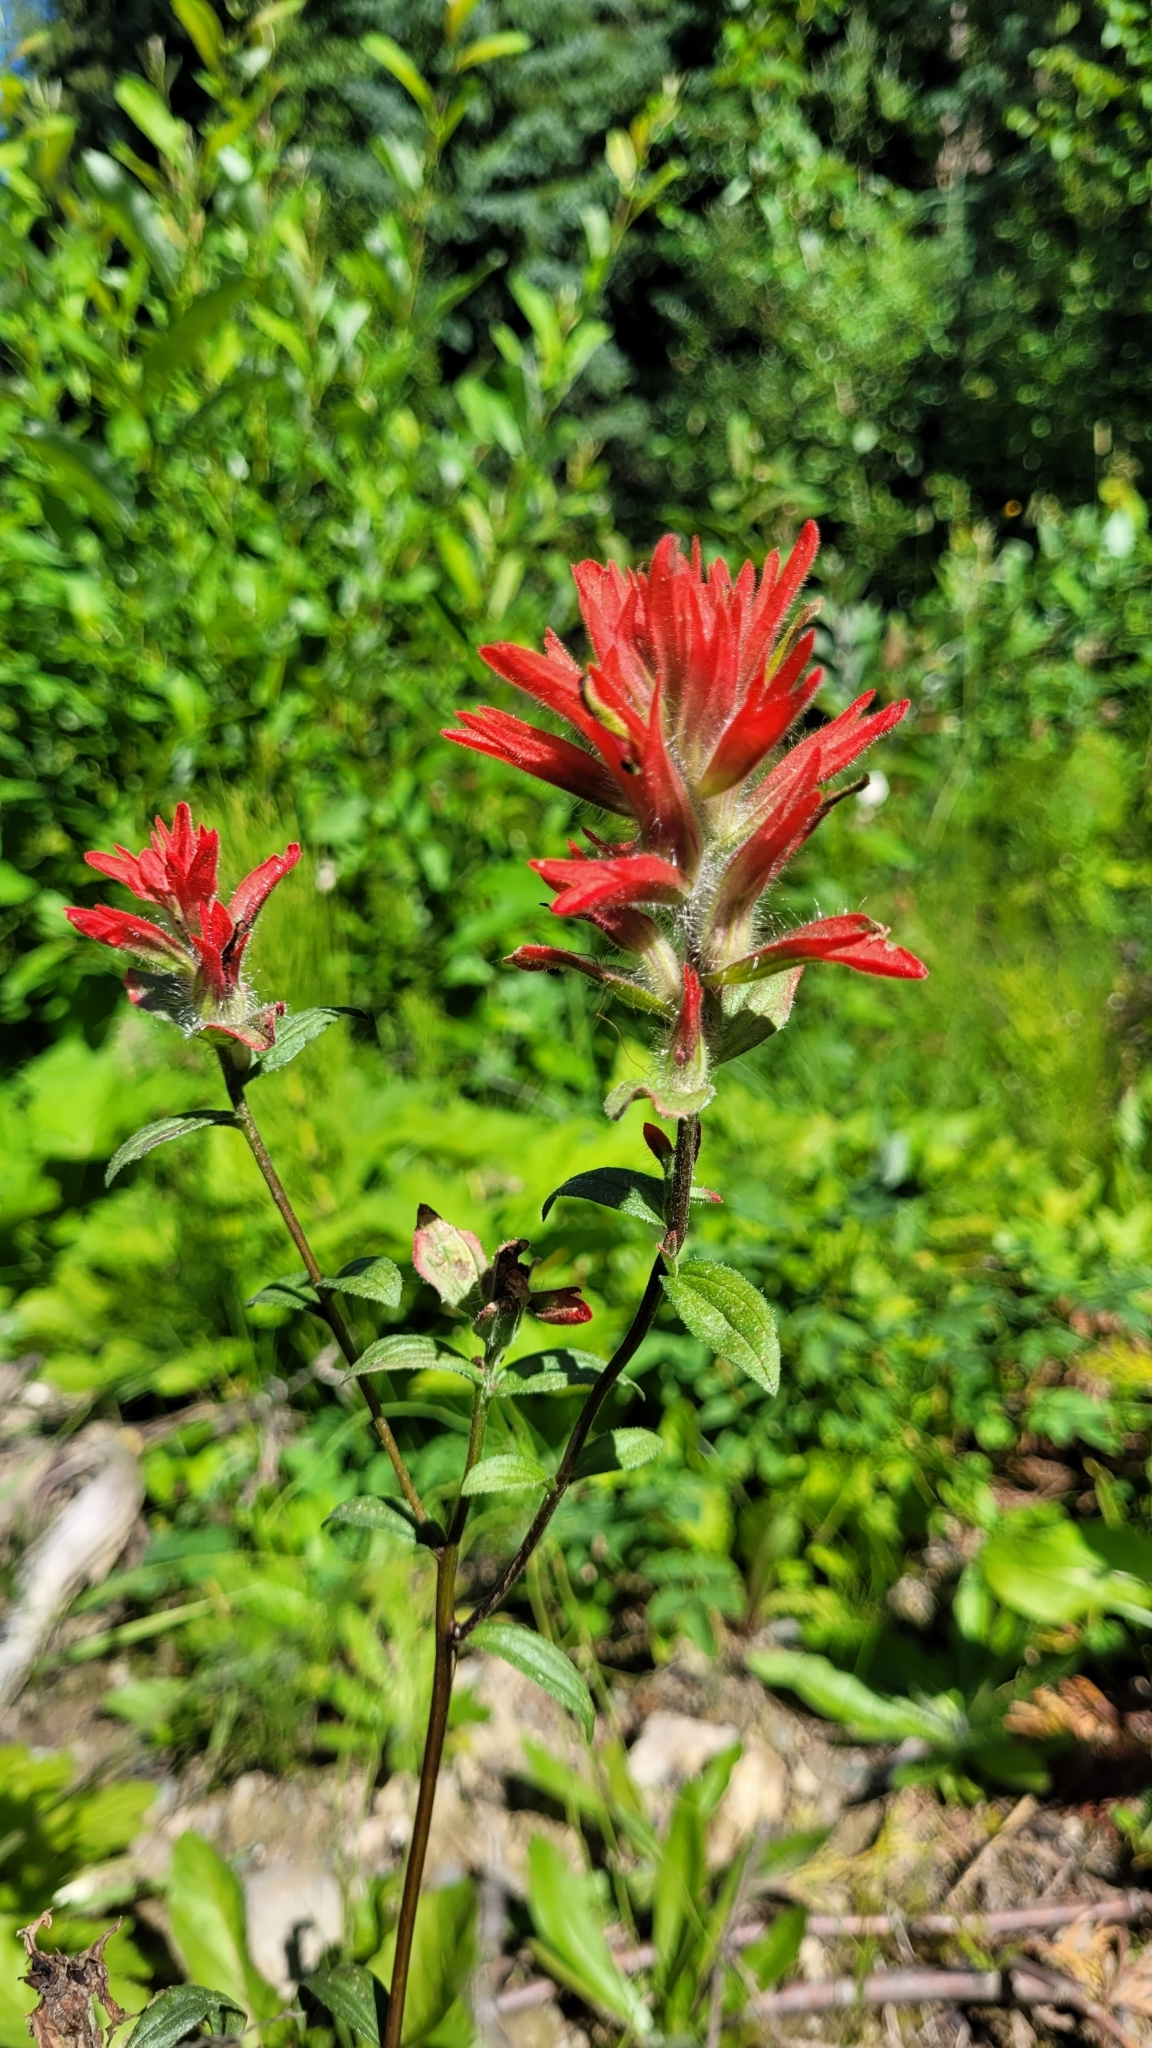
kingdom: Plantae
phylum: Tracheophyta
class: Magnoliopsida
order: Lamiales
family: Orobanchaceae
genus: Castilleja
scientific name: Castilleja miniata
